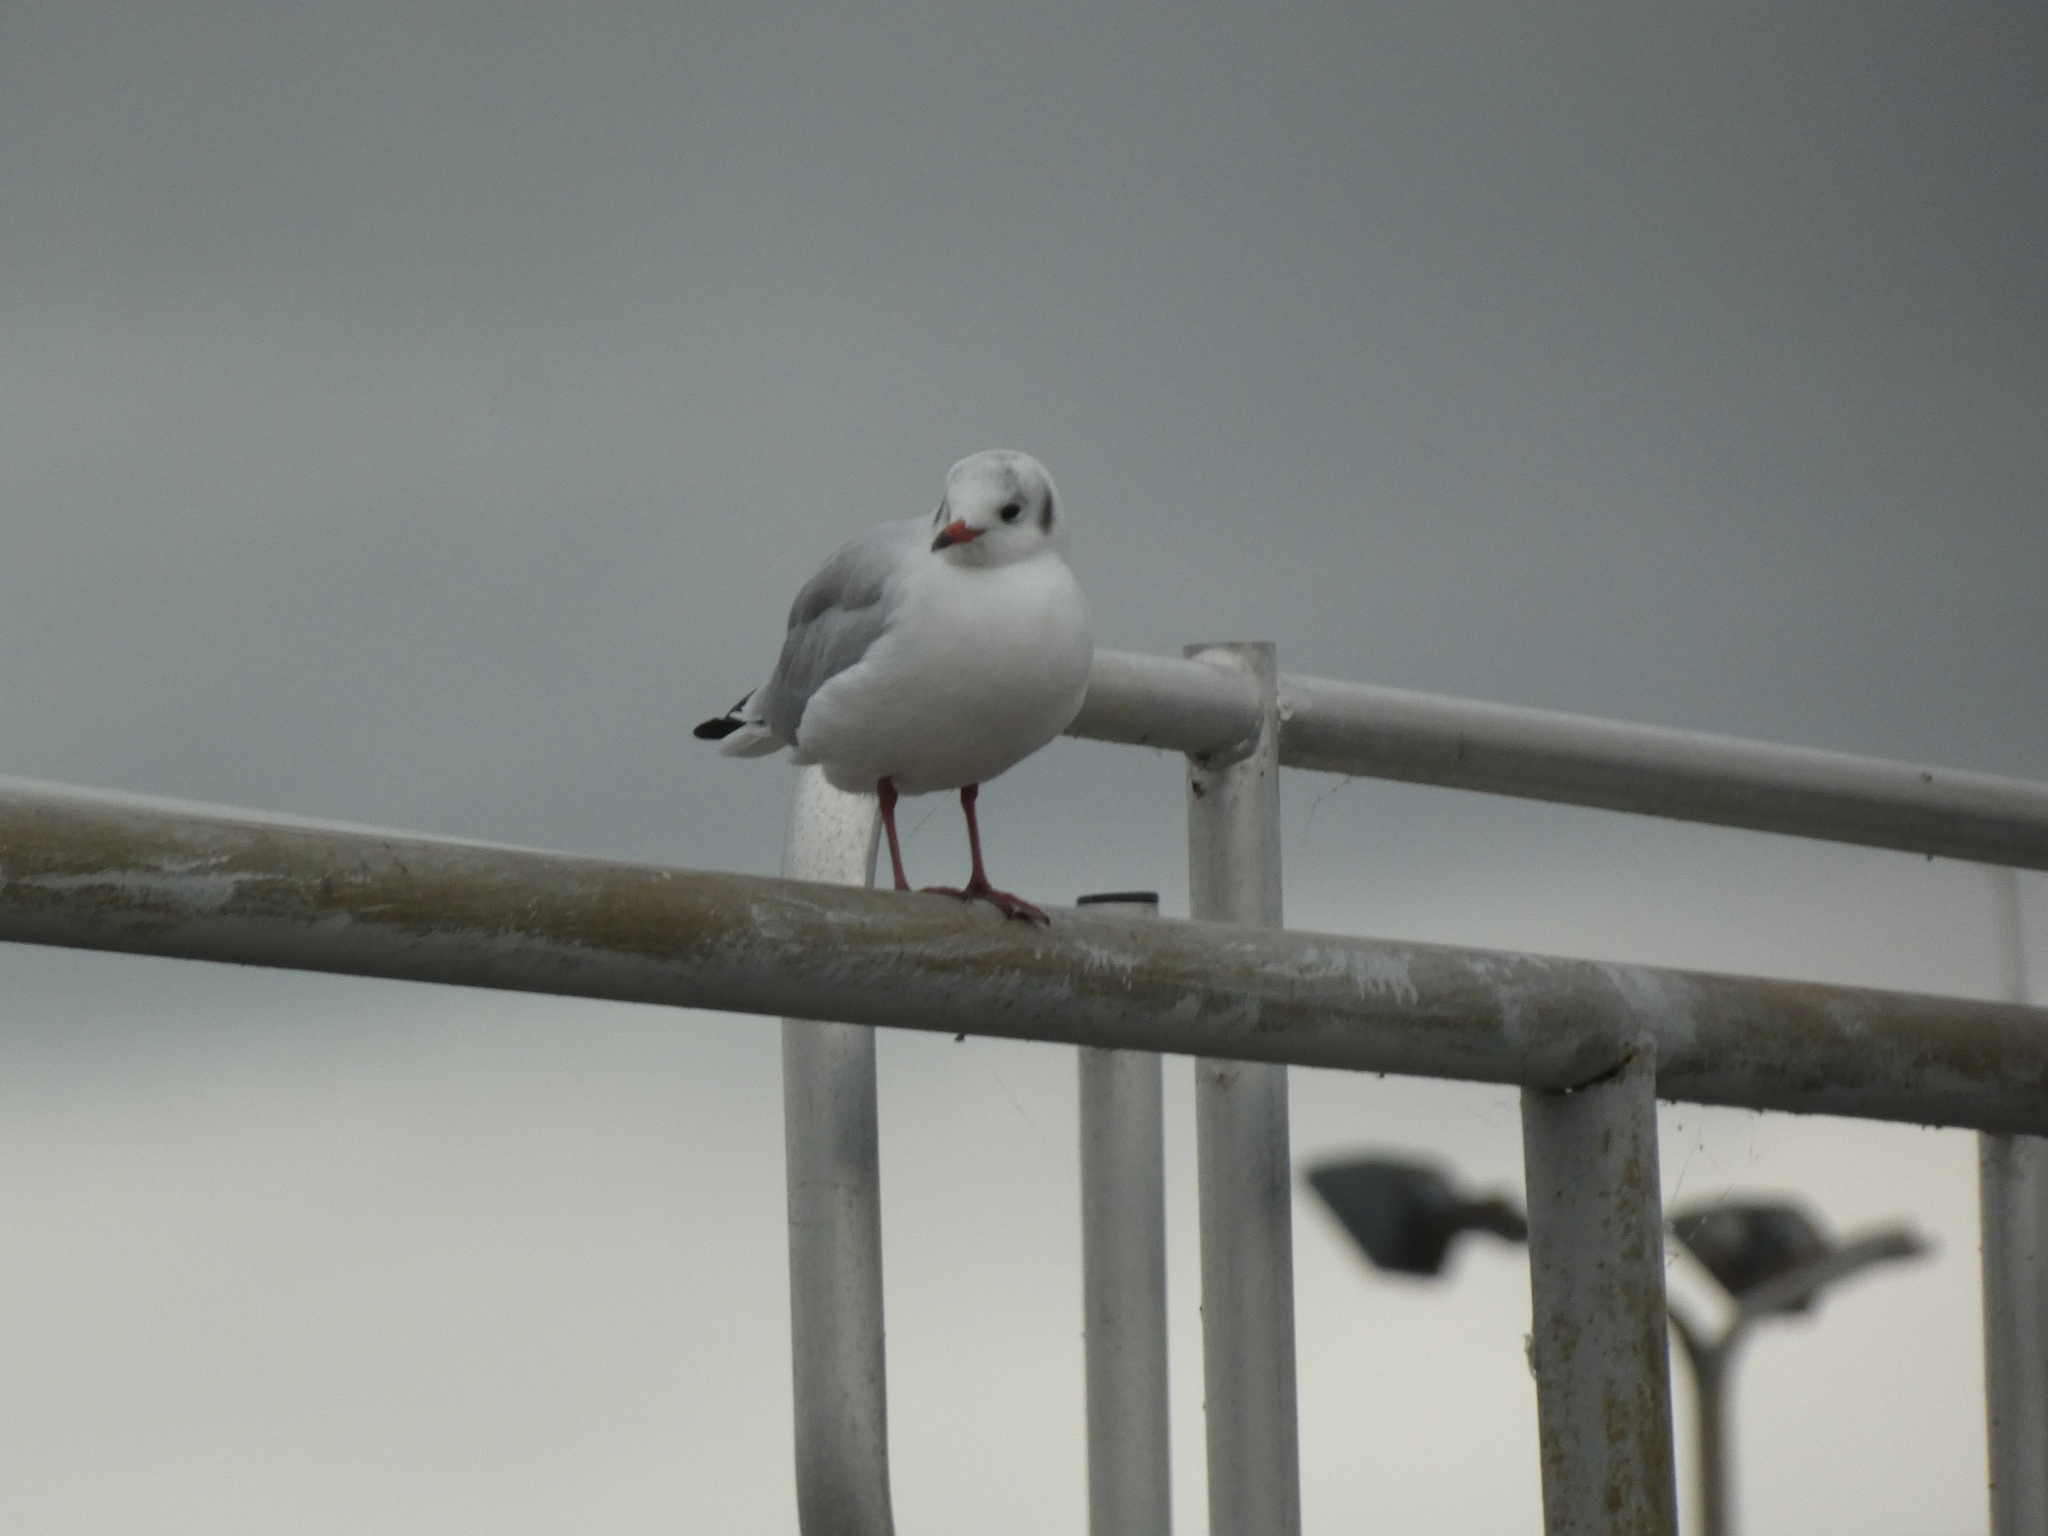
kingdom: Animalia
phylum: Chordata
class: Aves
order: Charadriiformes
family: Laridae
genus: Chroicocephalus
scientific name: Chroicocephalus ridibundus
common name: Black-headed gull
